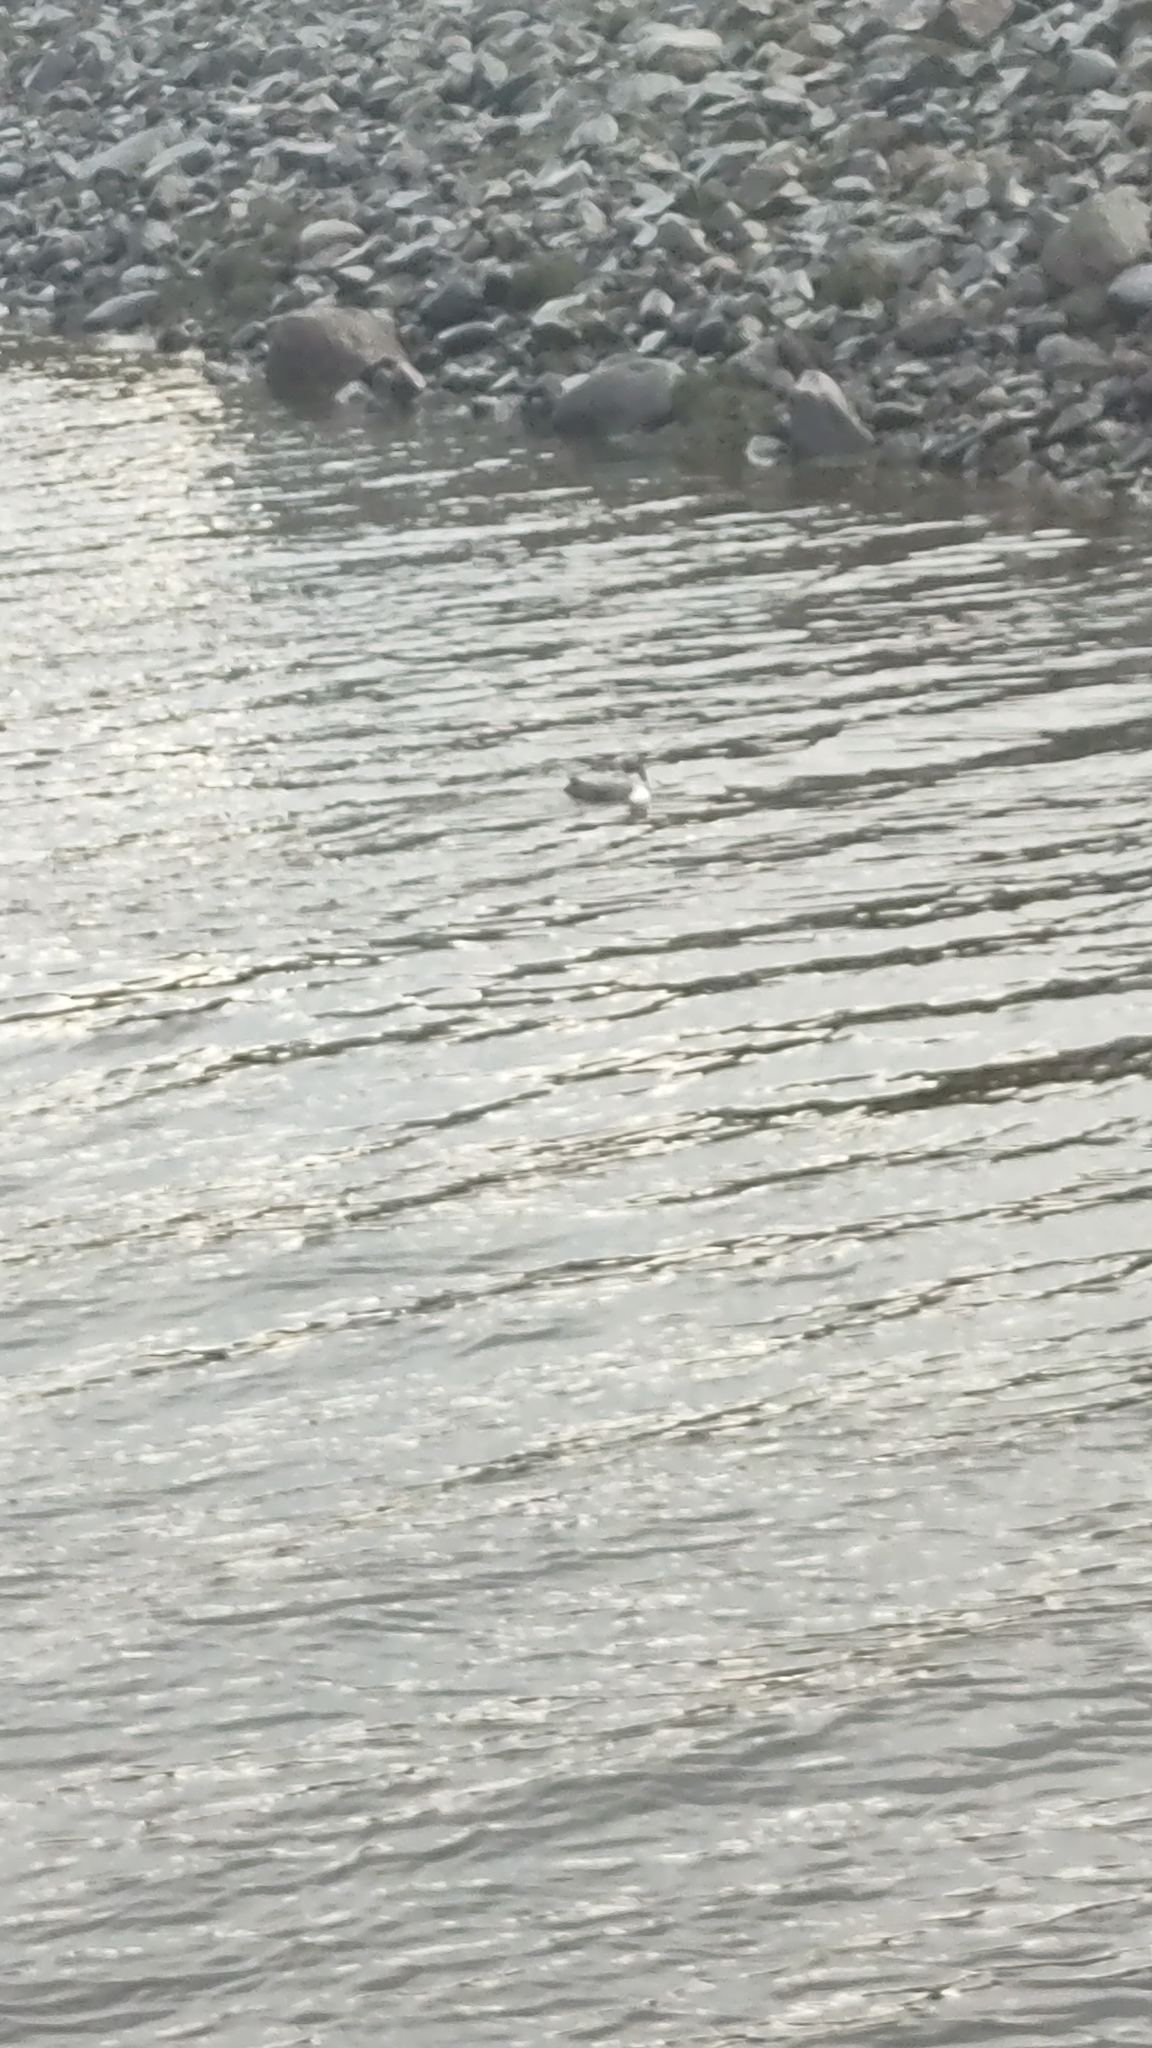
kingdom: Animalia
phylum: Chordata
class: Aves
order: Gaviiformes
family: Gaviidae
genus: Gavia
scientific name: Gavia immer
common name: Common loon
